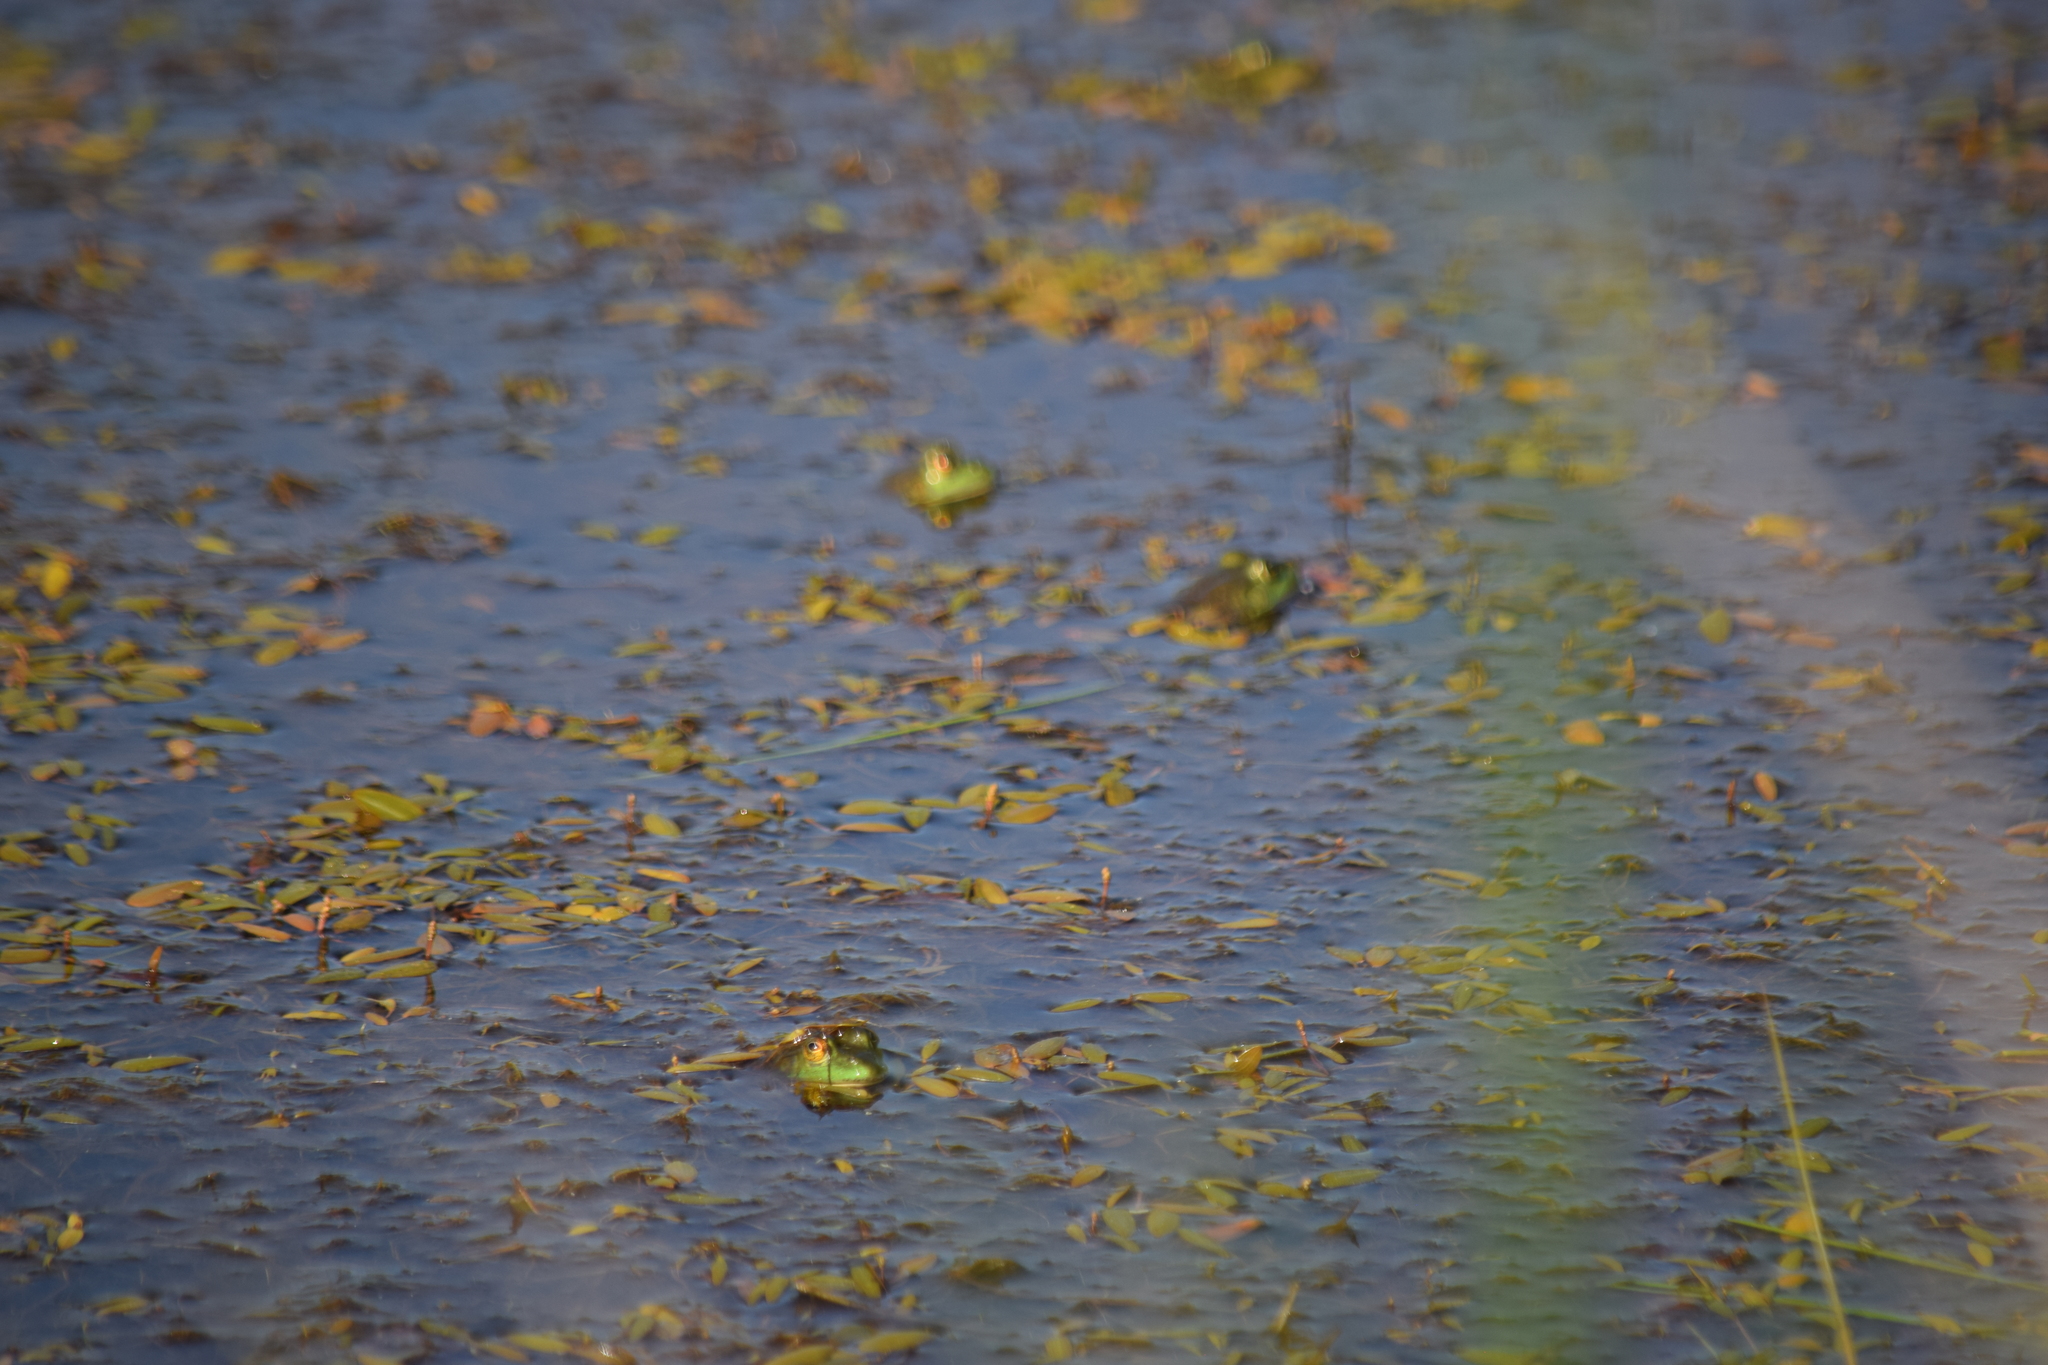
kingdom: Animalia
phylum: Chordata
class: Amphibia
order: Anura
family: Ranidae
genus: Lithobates
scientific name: Lithobates catesbeianus
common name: American bullfrog
